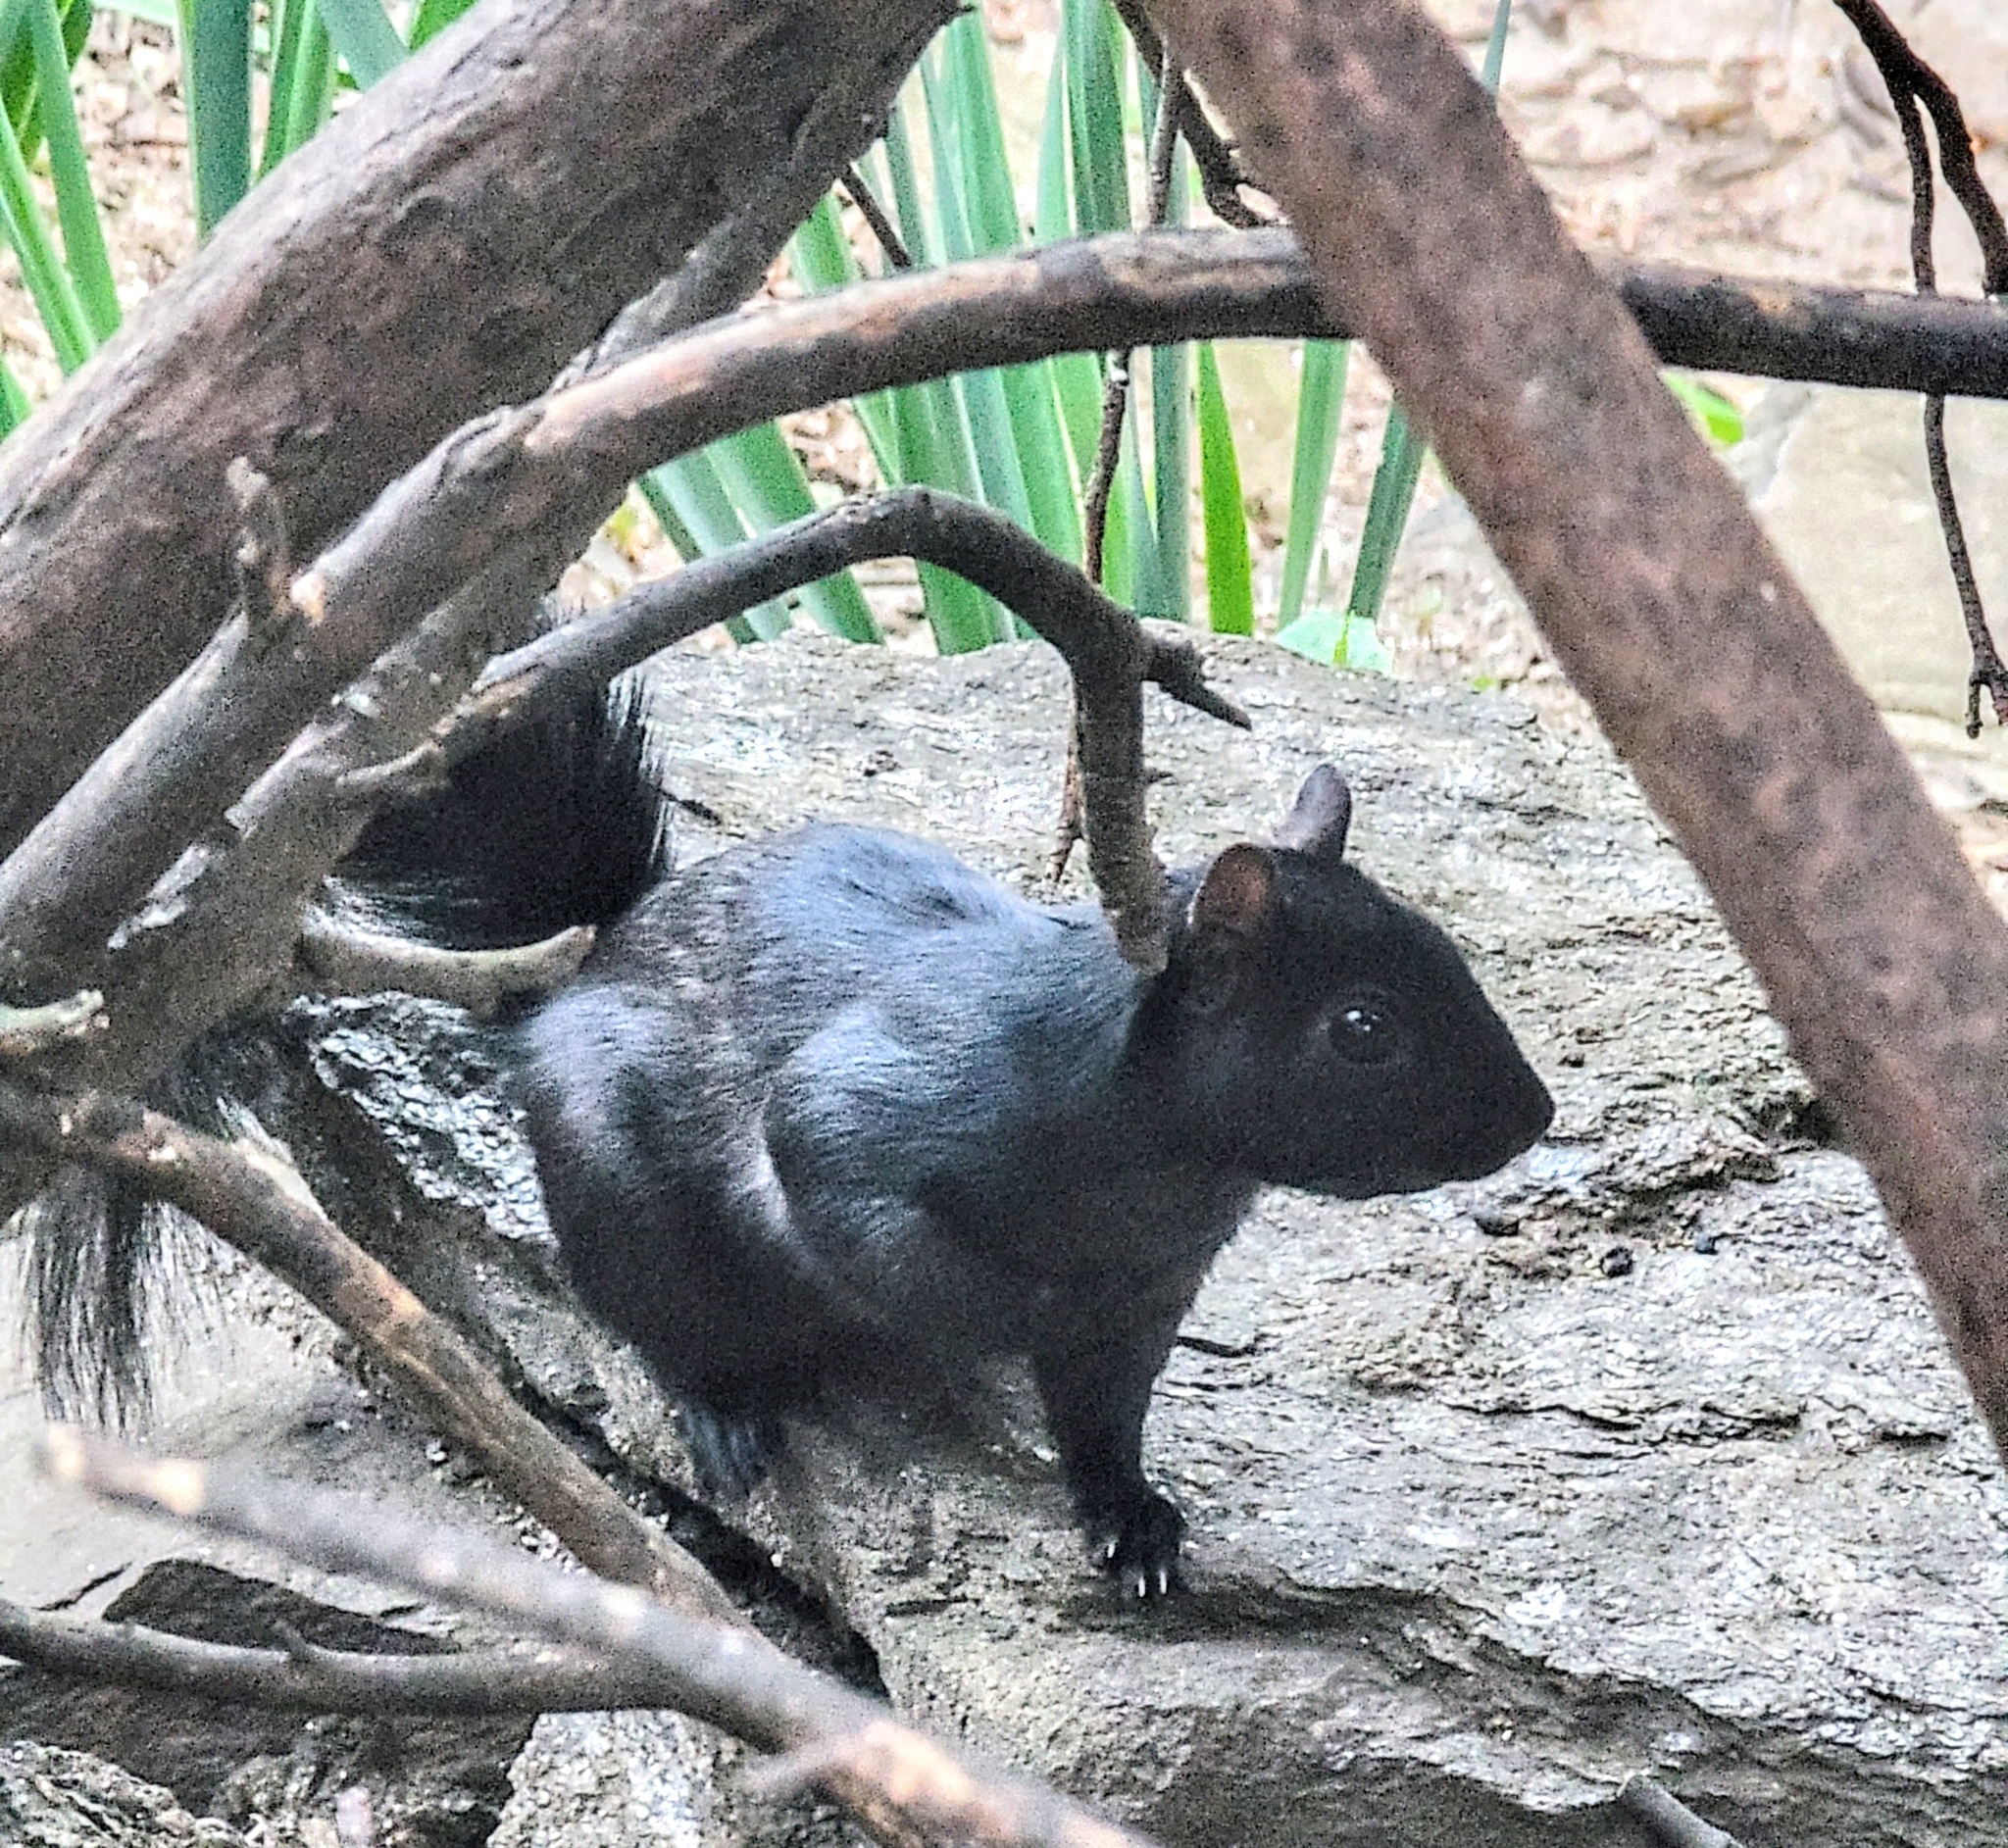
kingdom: Animalia
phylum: Chordata
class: Mammalia
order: Rodentia
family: Sciuridae
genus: Sciurus
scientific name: Sciurus carolinensis
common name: Eastern gray squirrel
